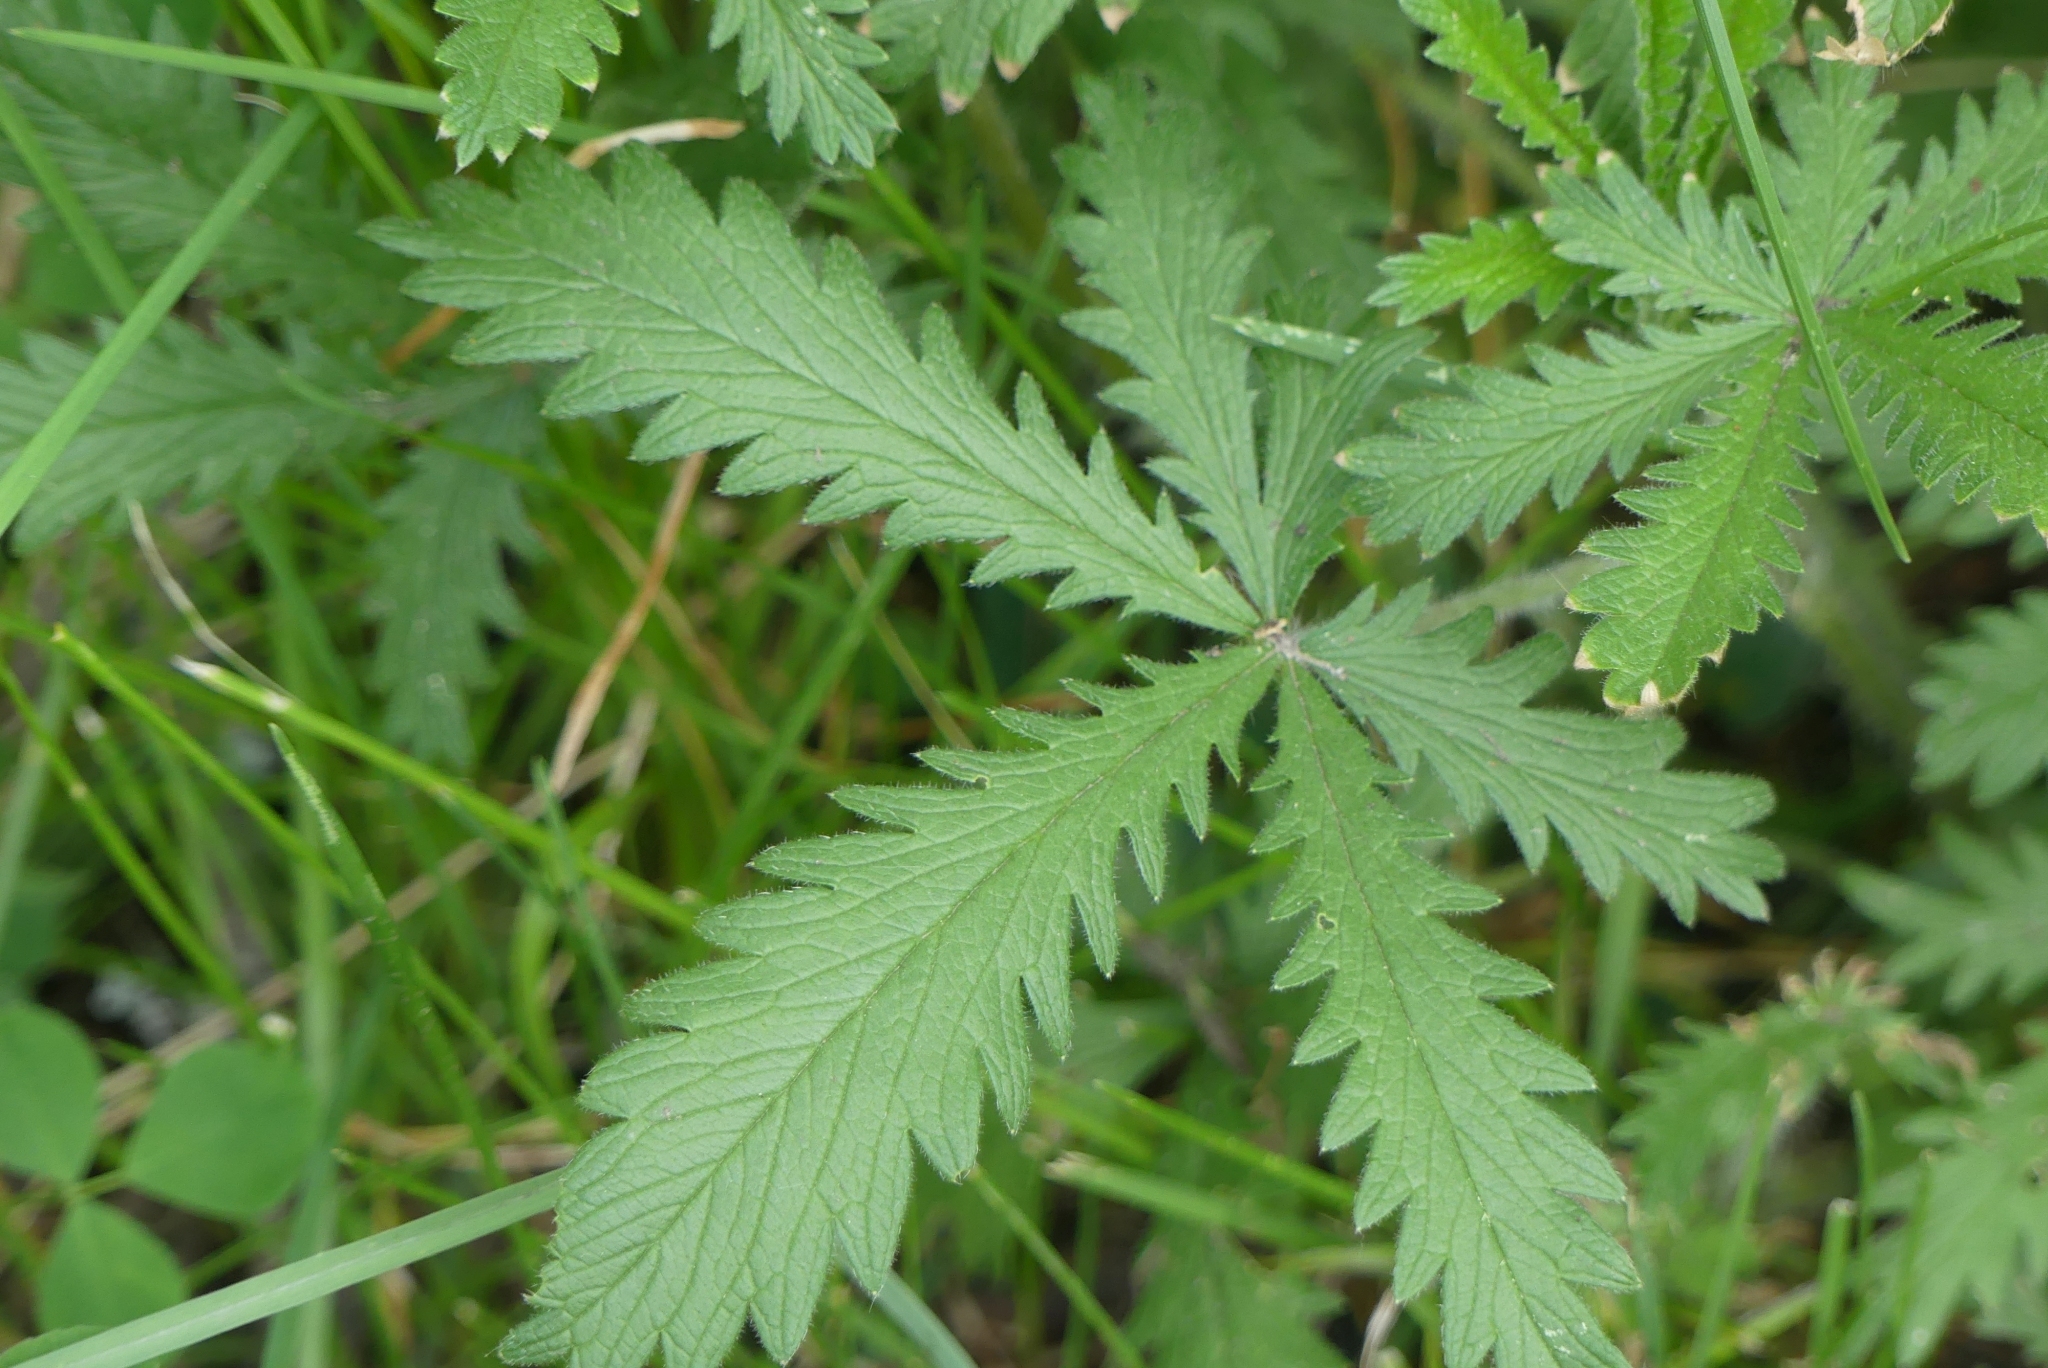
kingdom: Plantae
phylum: Tracheophyta
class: Magnoliopsida
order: Rosales
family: Rosaceae
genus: Potentilla
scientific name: Potentilla recta
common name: Sulphur cinquefoil
